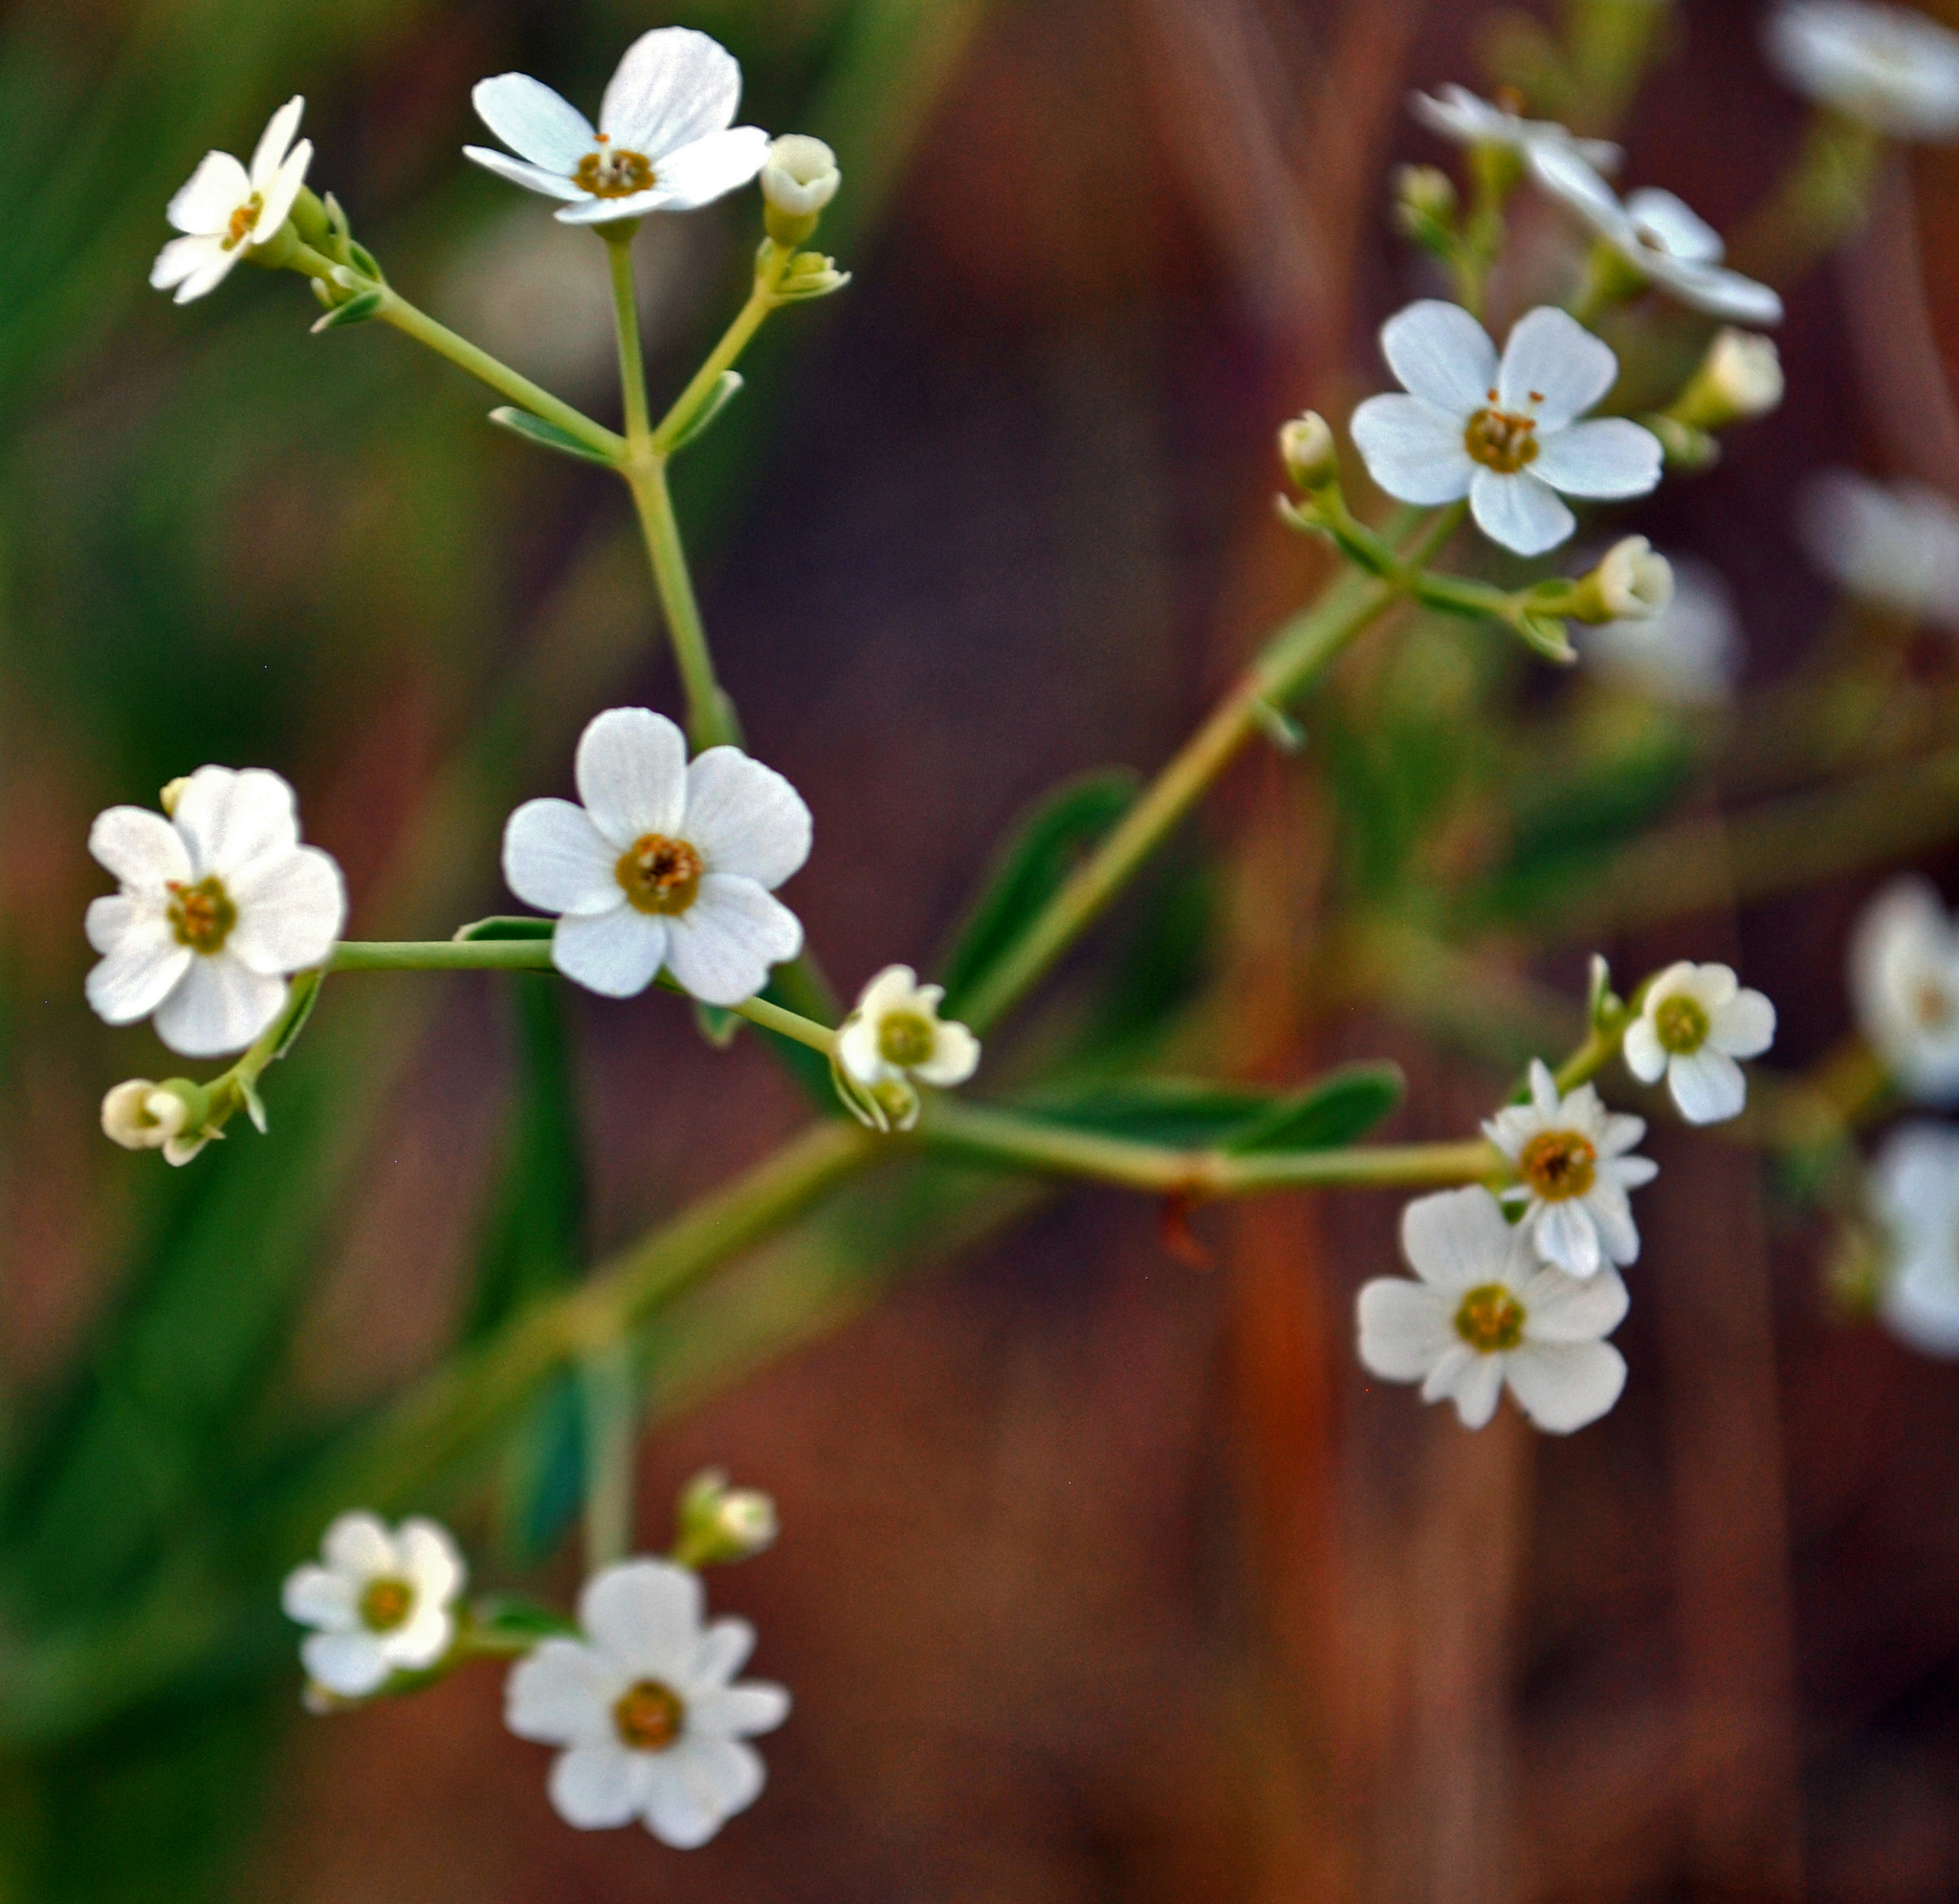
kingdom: Plantae
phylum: Tracheophyta
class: Magnoliopsida
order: Malpighiales
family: Euphorbiaceae
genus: Euphorbia
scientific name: Euphorbia corollata
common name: Flowering spurge
